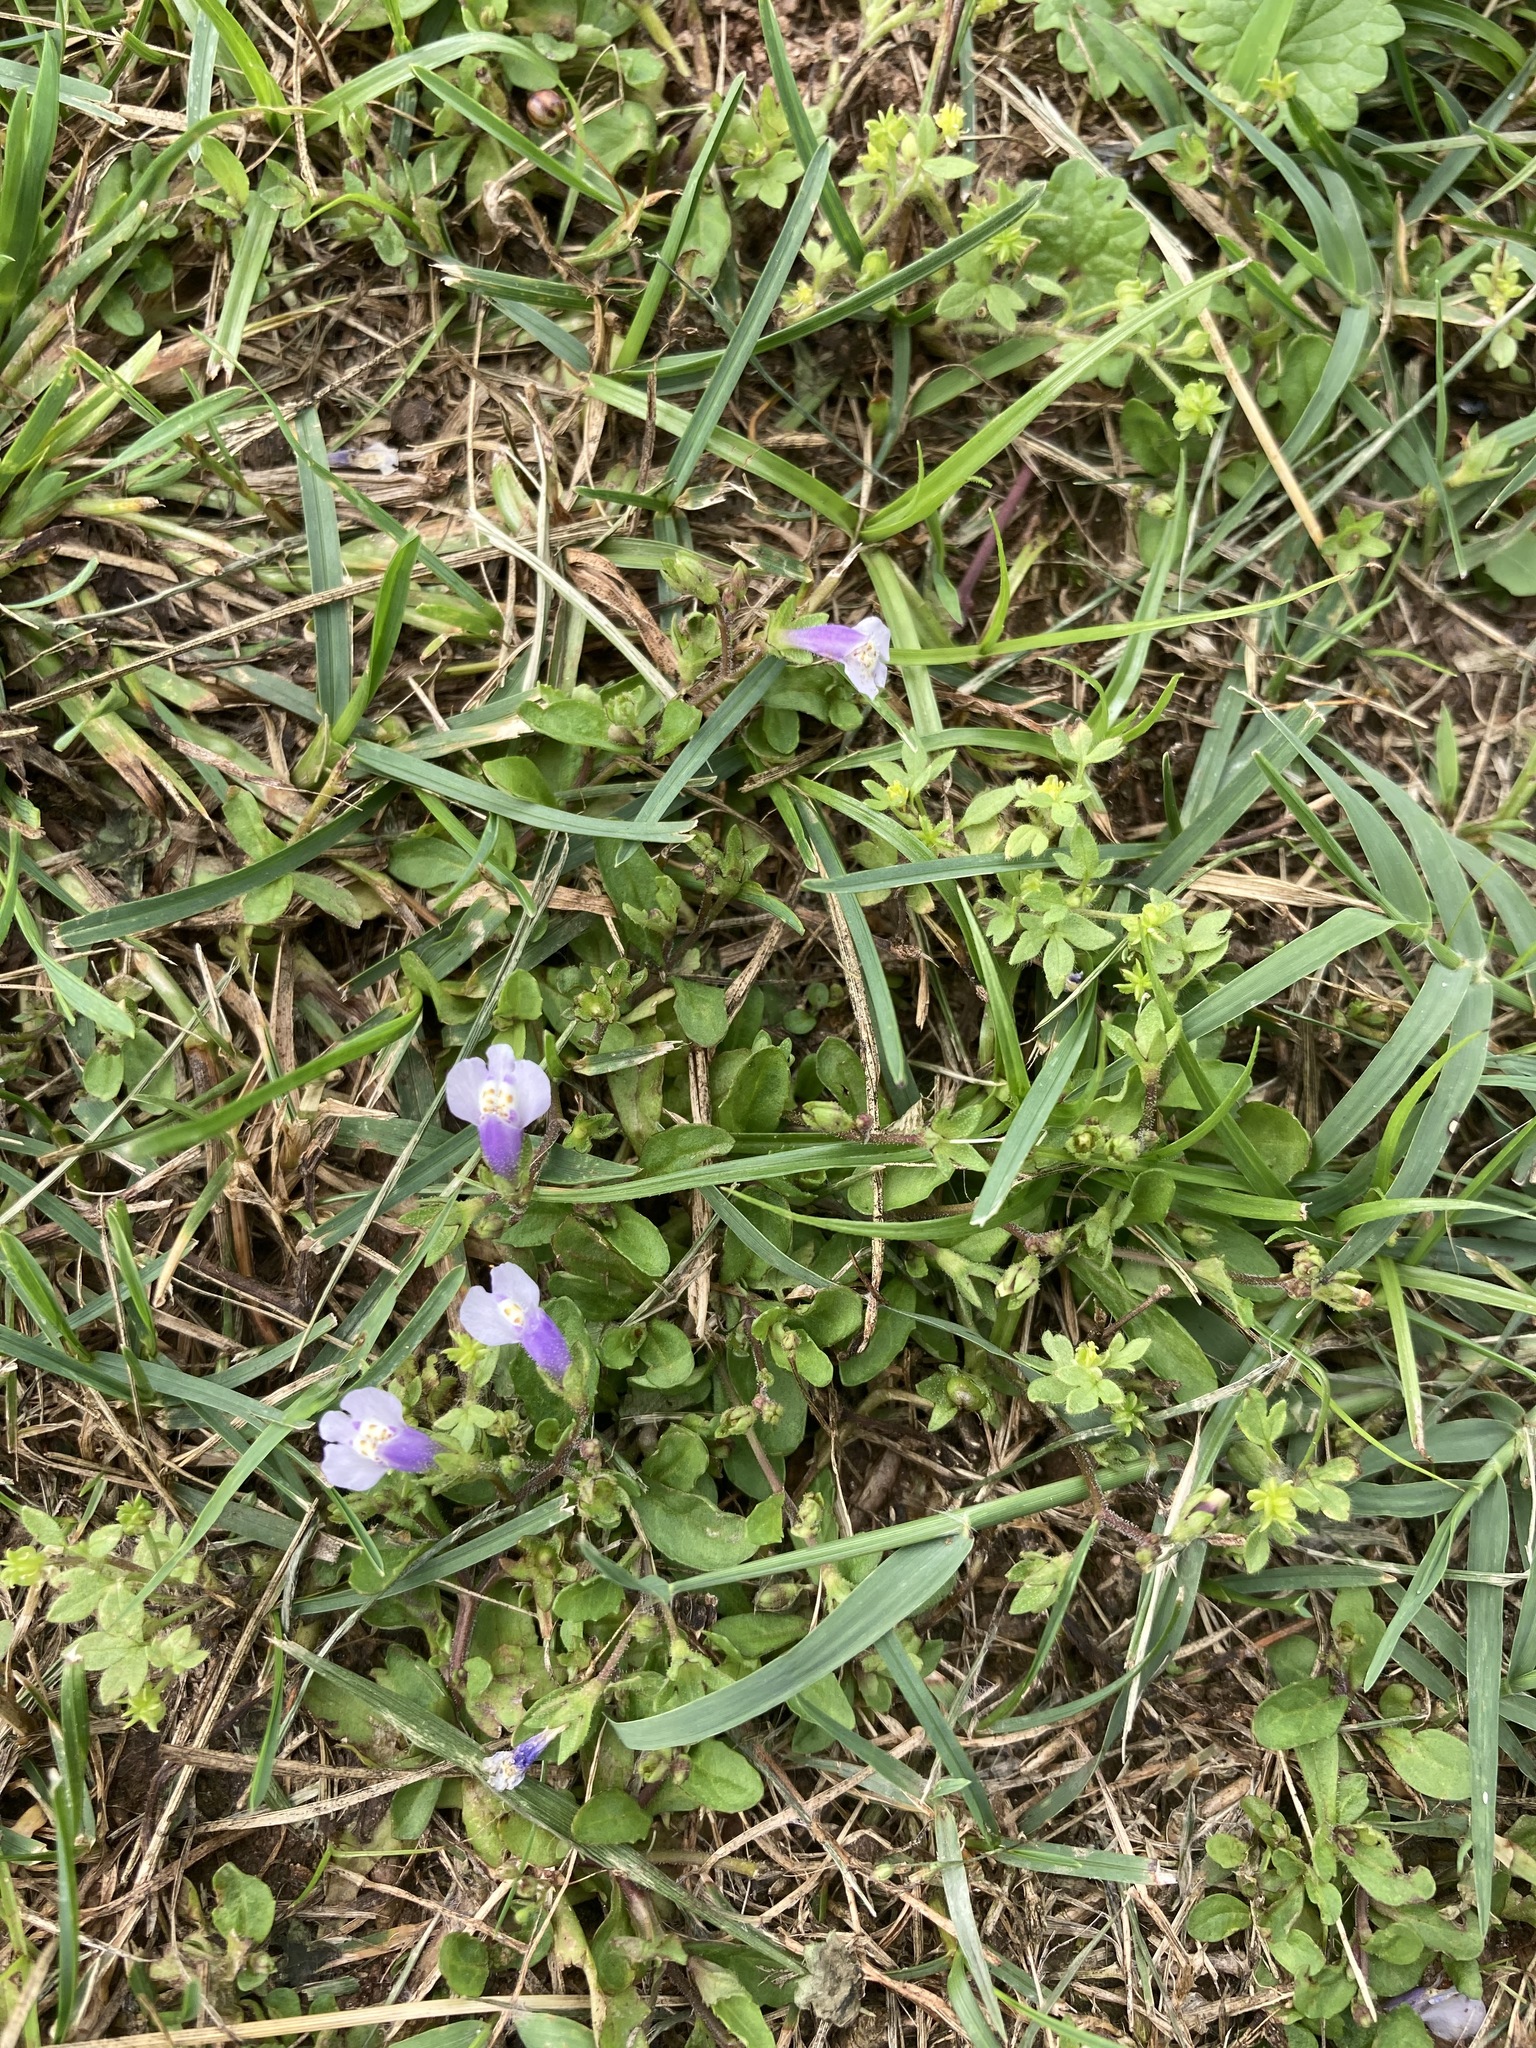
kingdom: Plantae
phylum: Tracheophyta
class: Magnoliopsida
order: Lamiales
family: Mazaceae
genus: Mazus
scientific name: Mazus pumilus
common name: Japanese mazus
